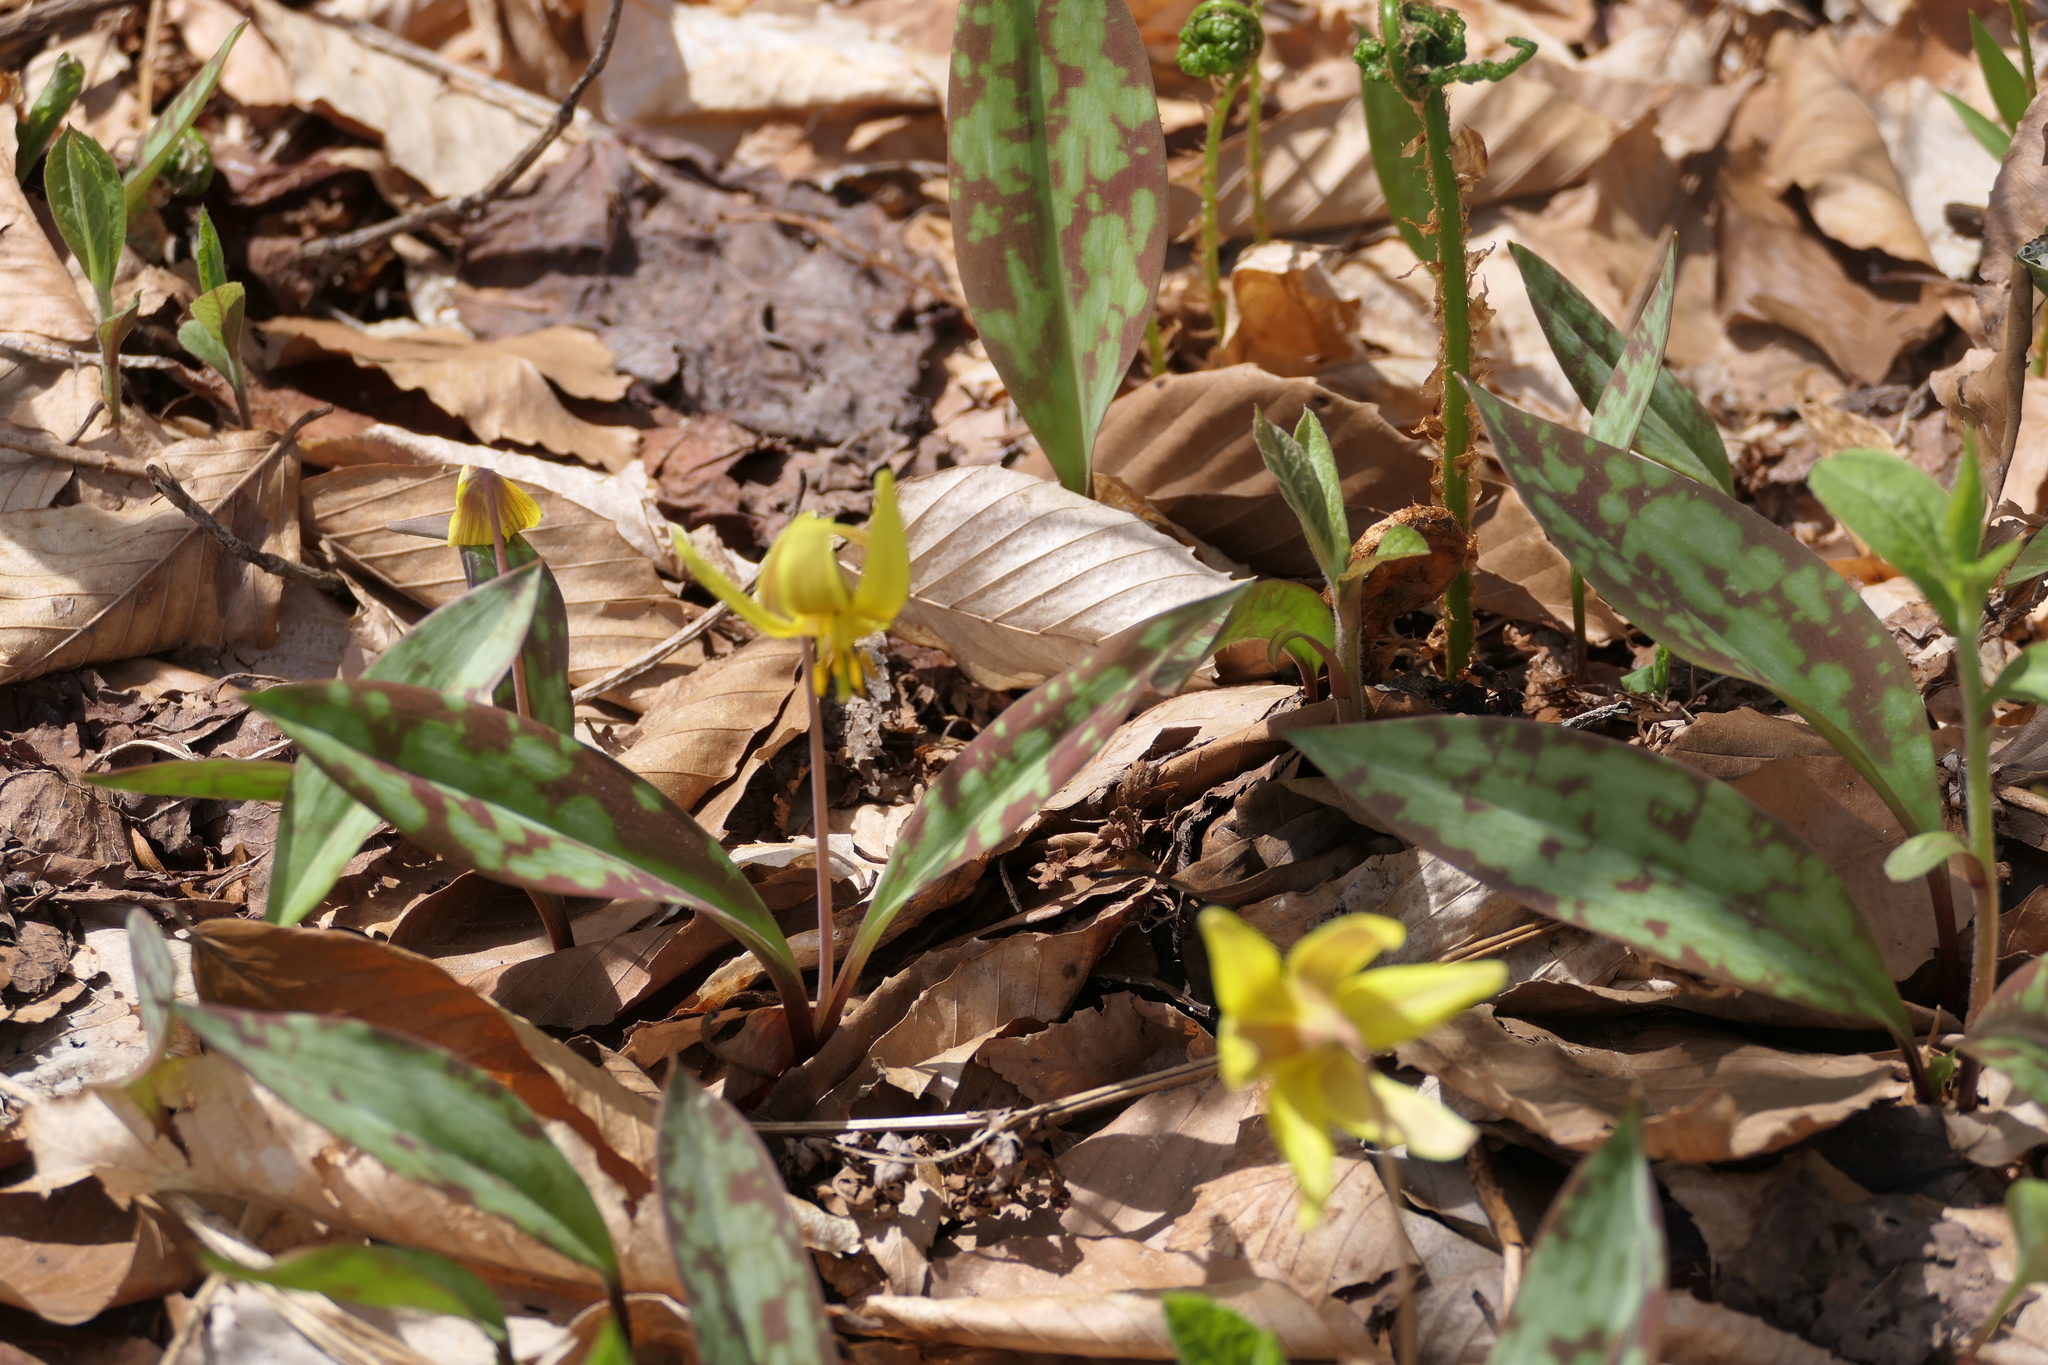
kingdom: Plantae
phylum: Tracheophyta
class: Liliopsida
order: Liliales
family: Liliaceae
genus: Erythronium
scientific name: Erythronium americanum
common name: Yellow adder's-tongue
